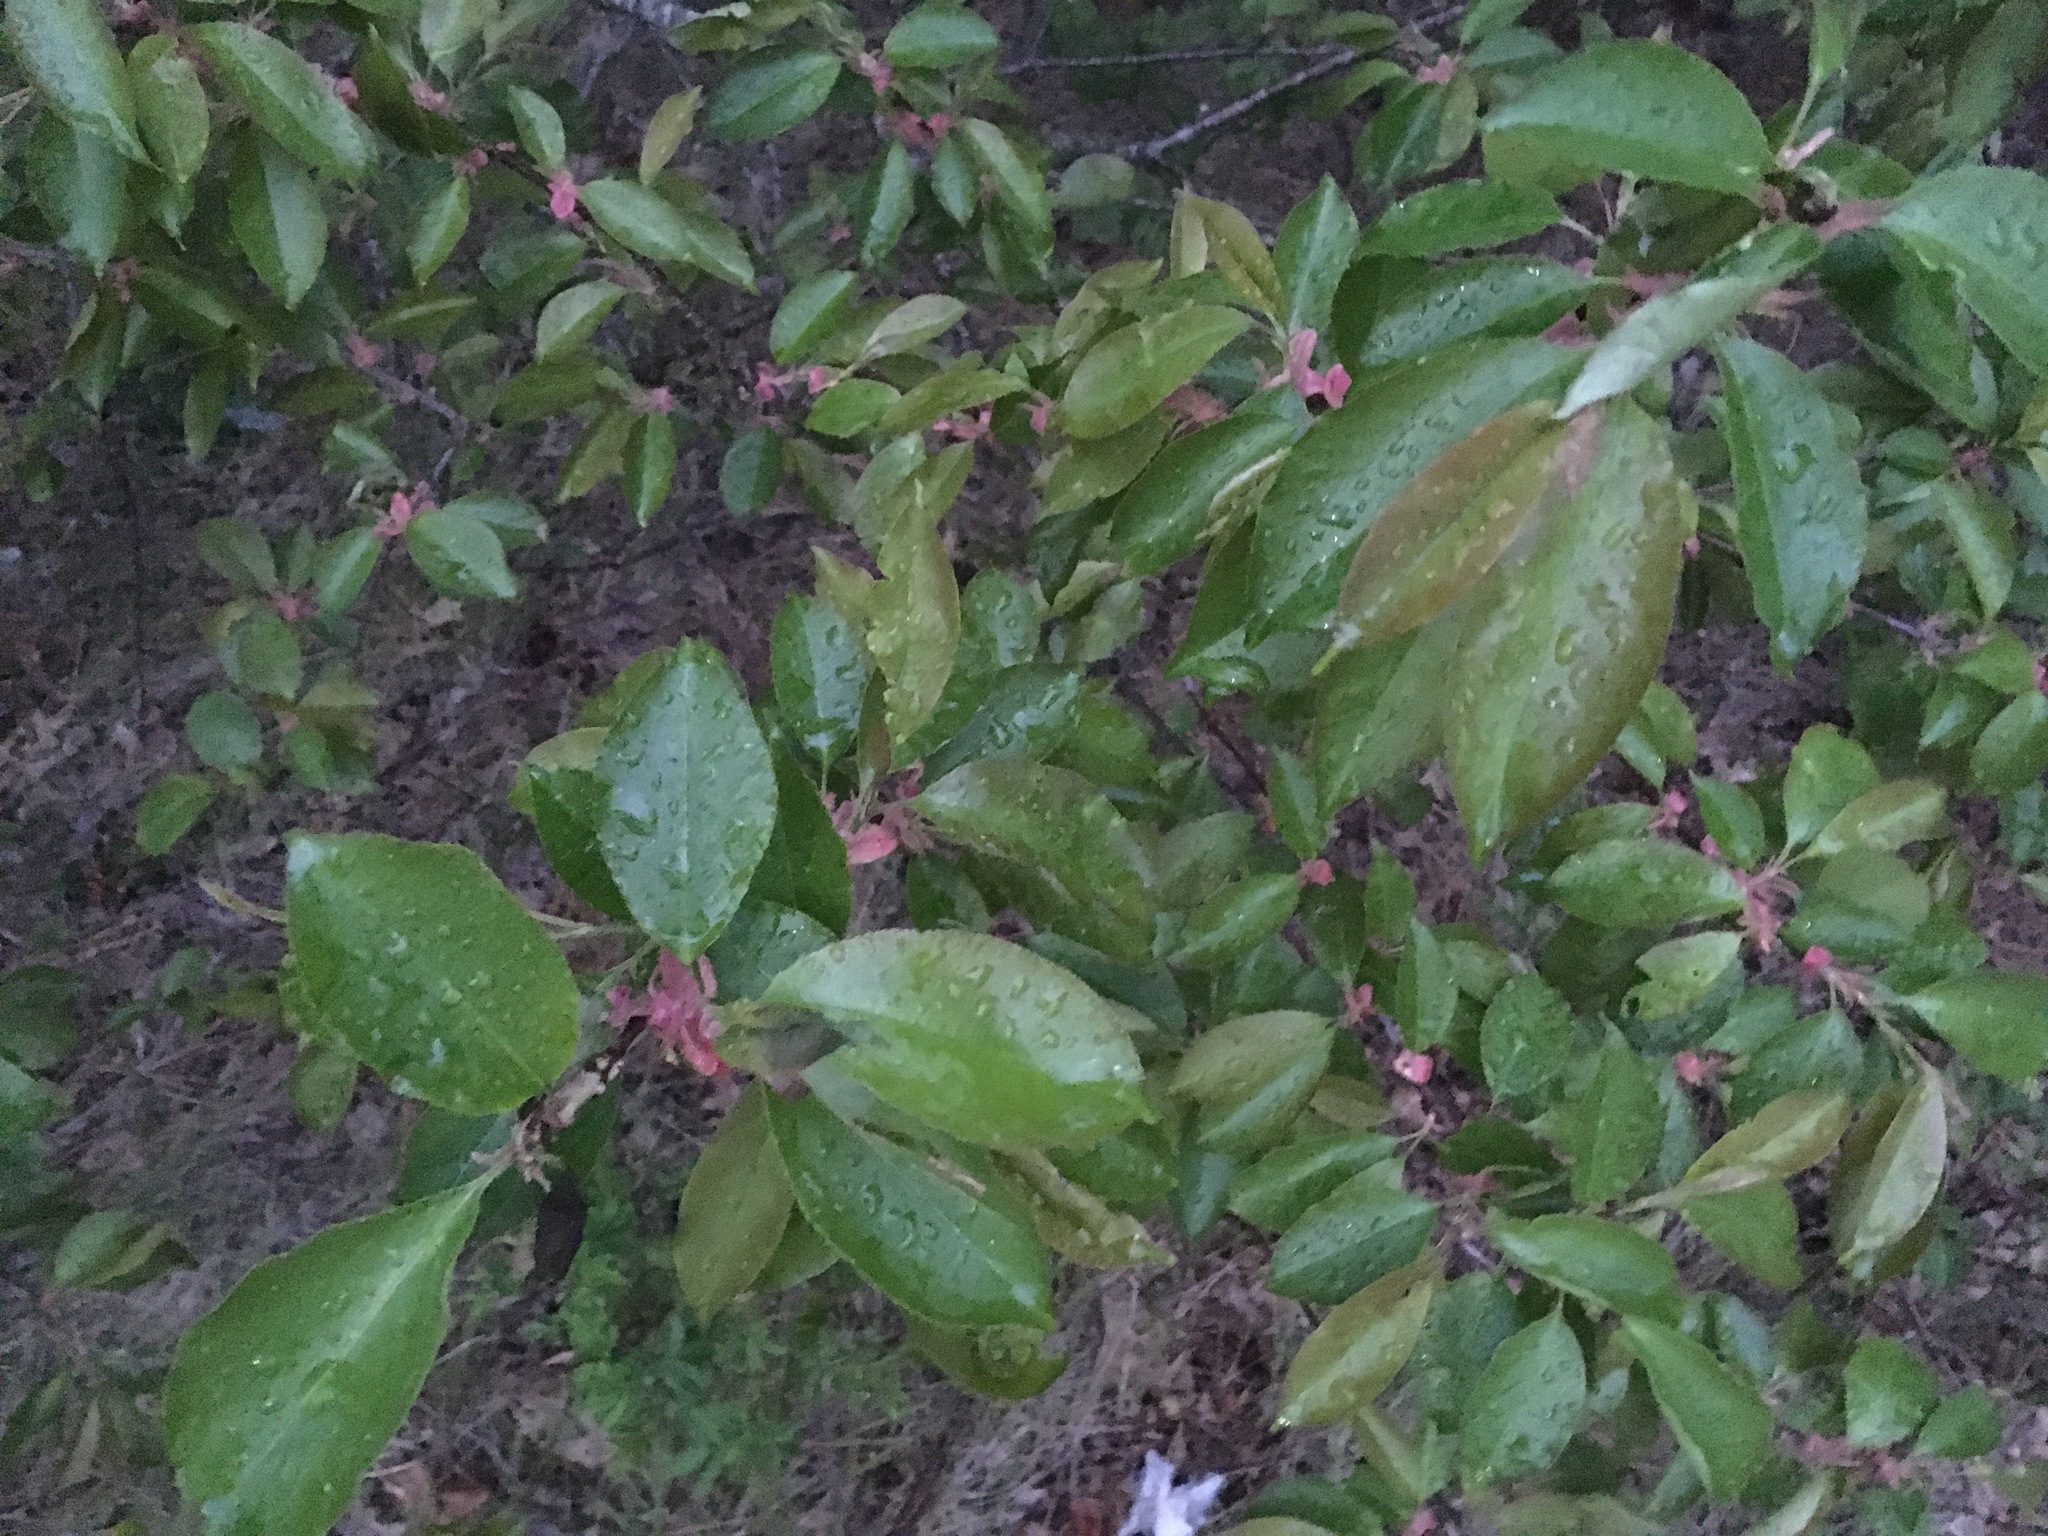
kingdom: Plantae
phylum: Tracheophyta
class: Magnoliopsida
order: Rosales
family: Rosaceae
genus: Prunus
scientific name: Prunus serotina
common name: Black cherry
